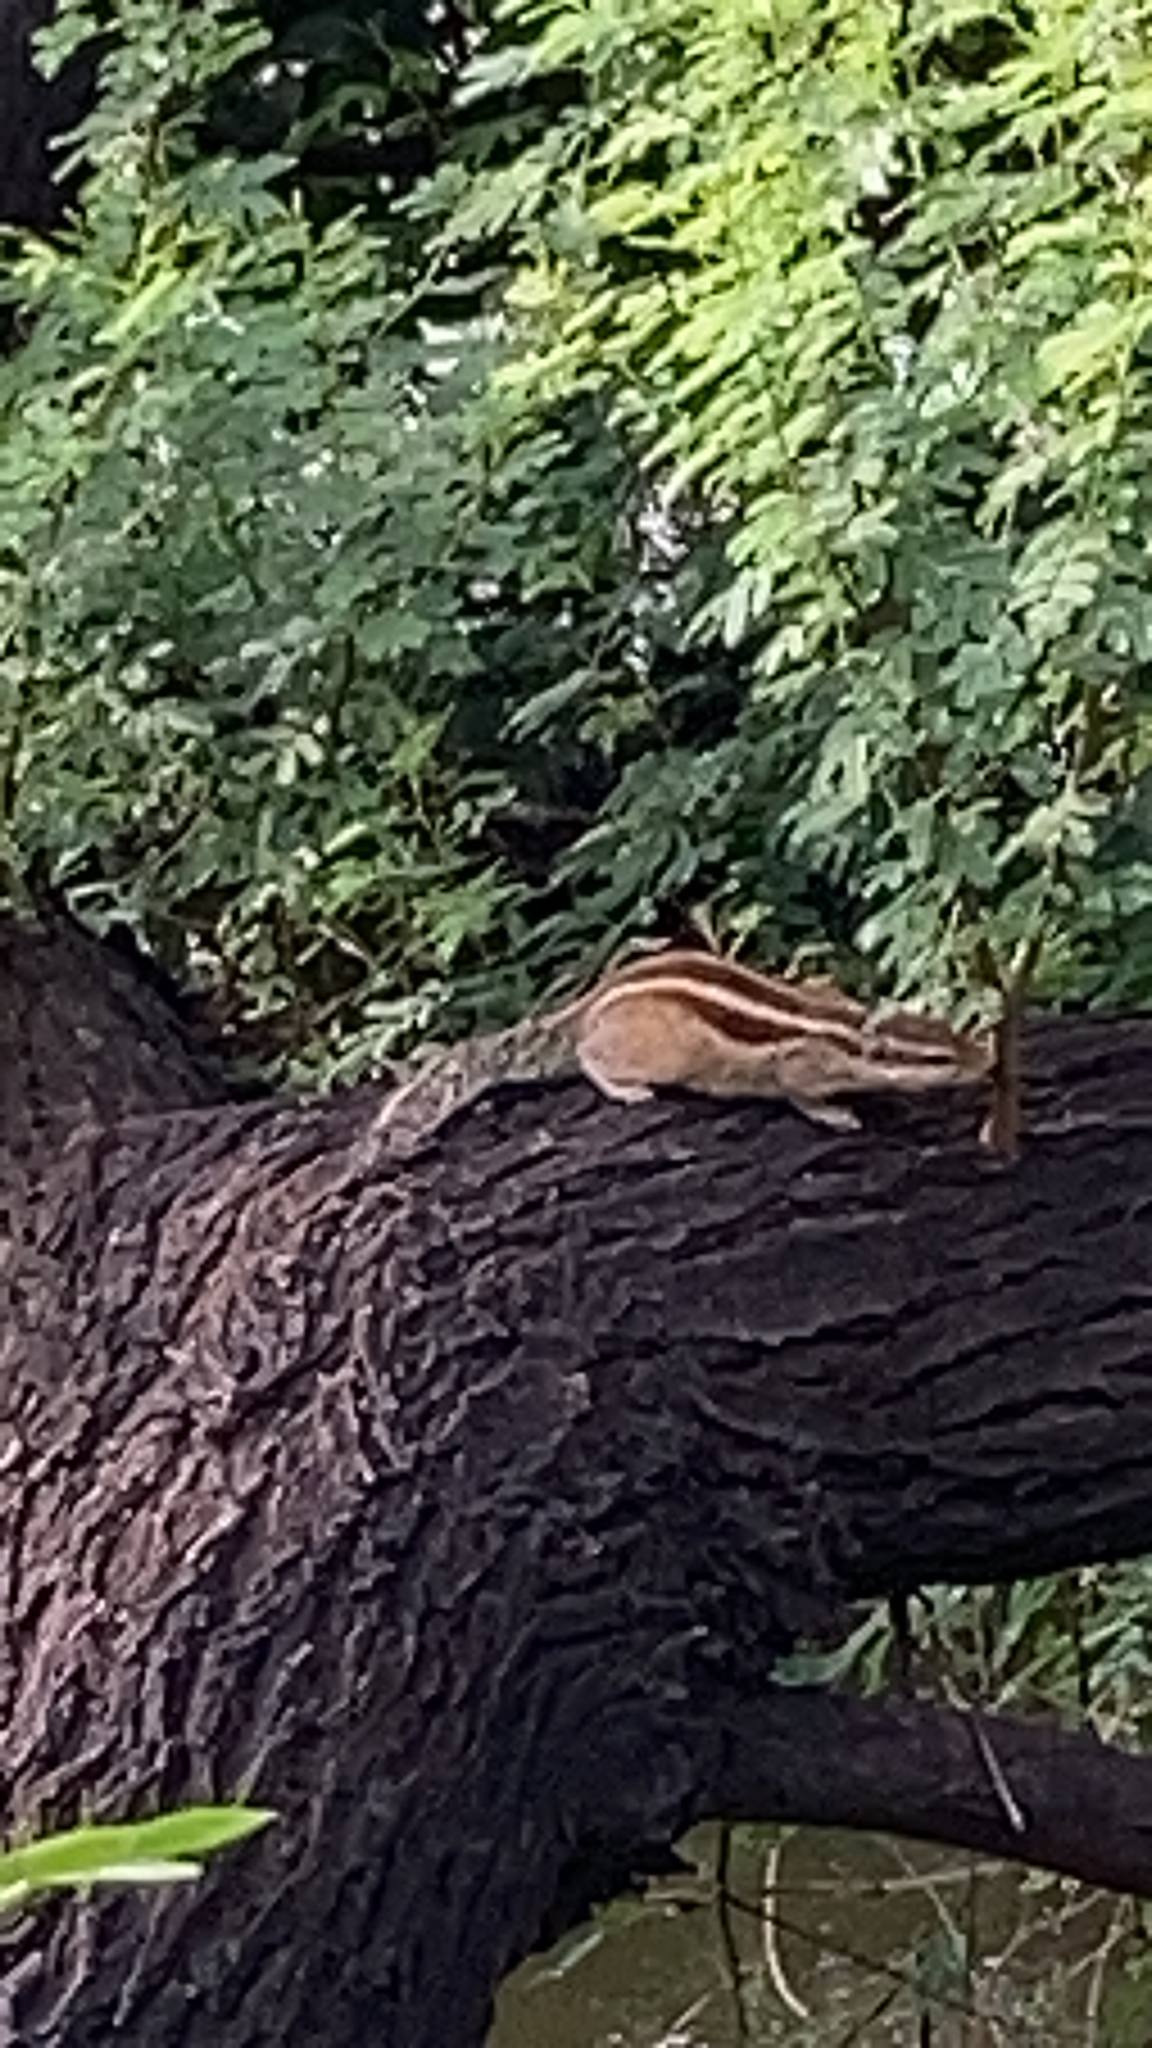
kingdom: Animalia
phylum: Chordata
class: Mammalia
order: Rodentia
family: Sciuridae
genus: Funambulus
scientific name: Funambulus pennantii
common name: Northern palm squirrel
